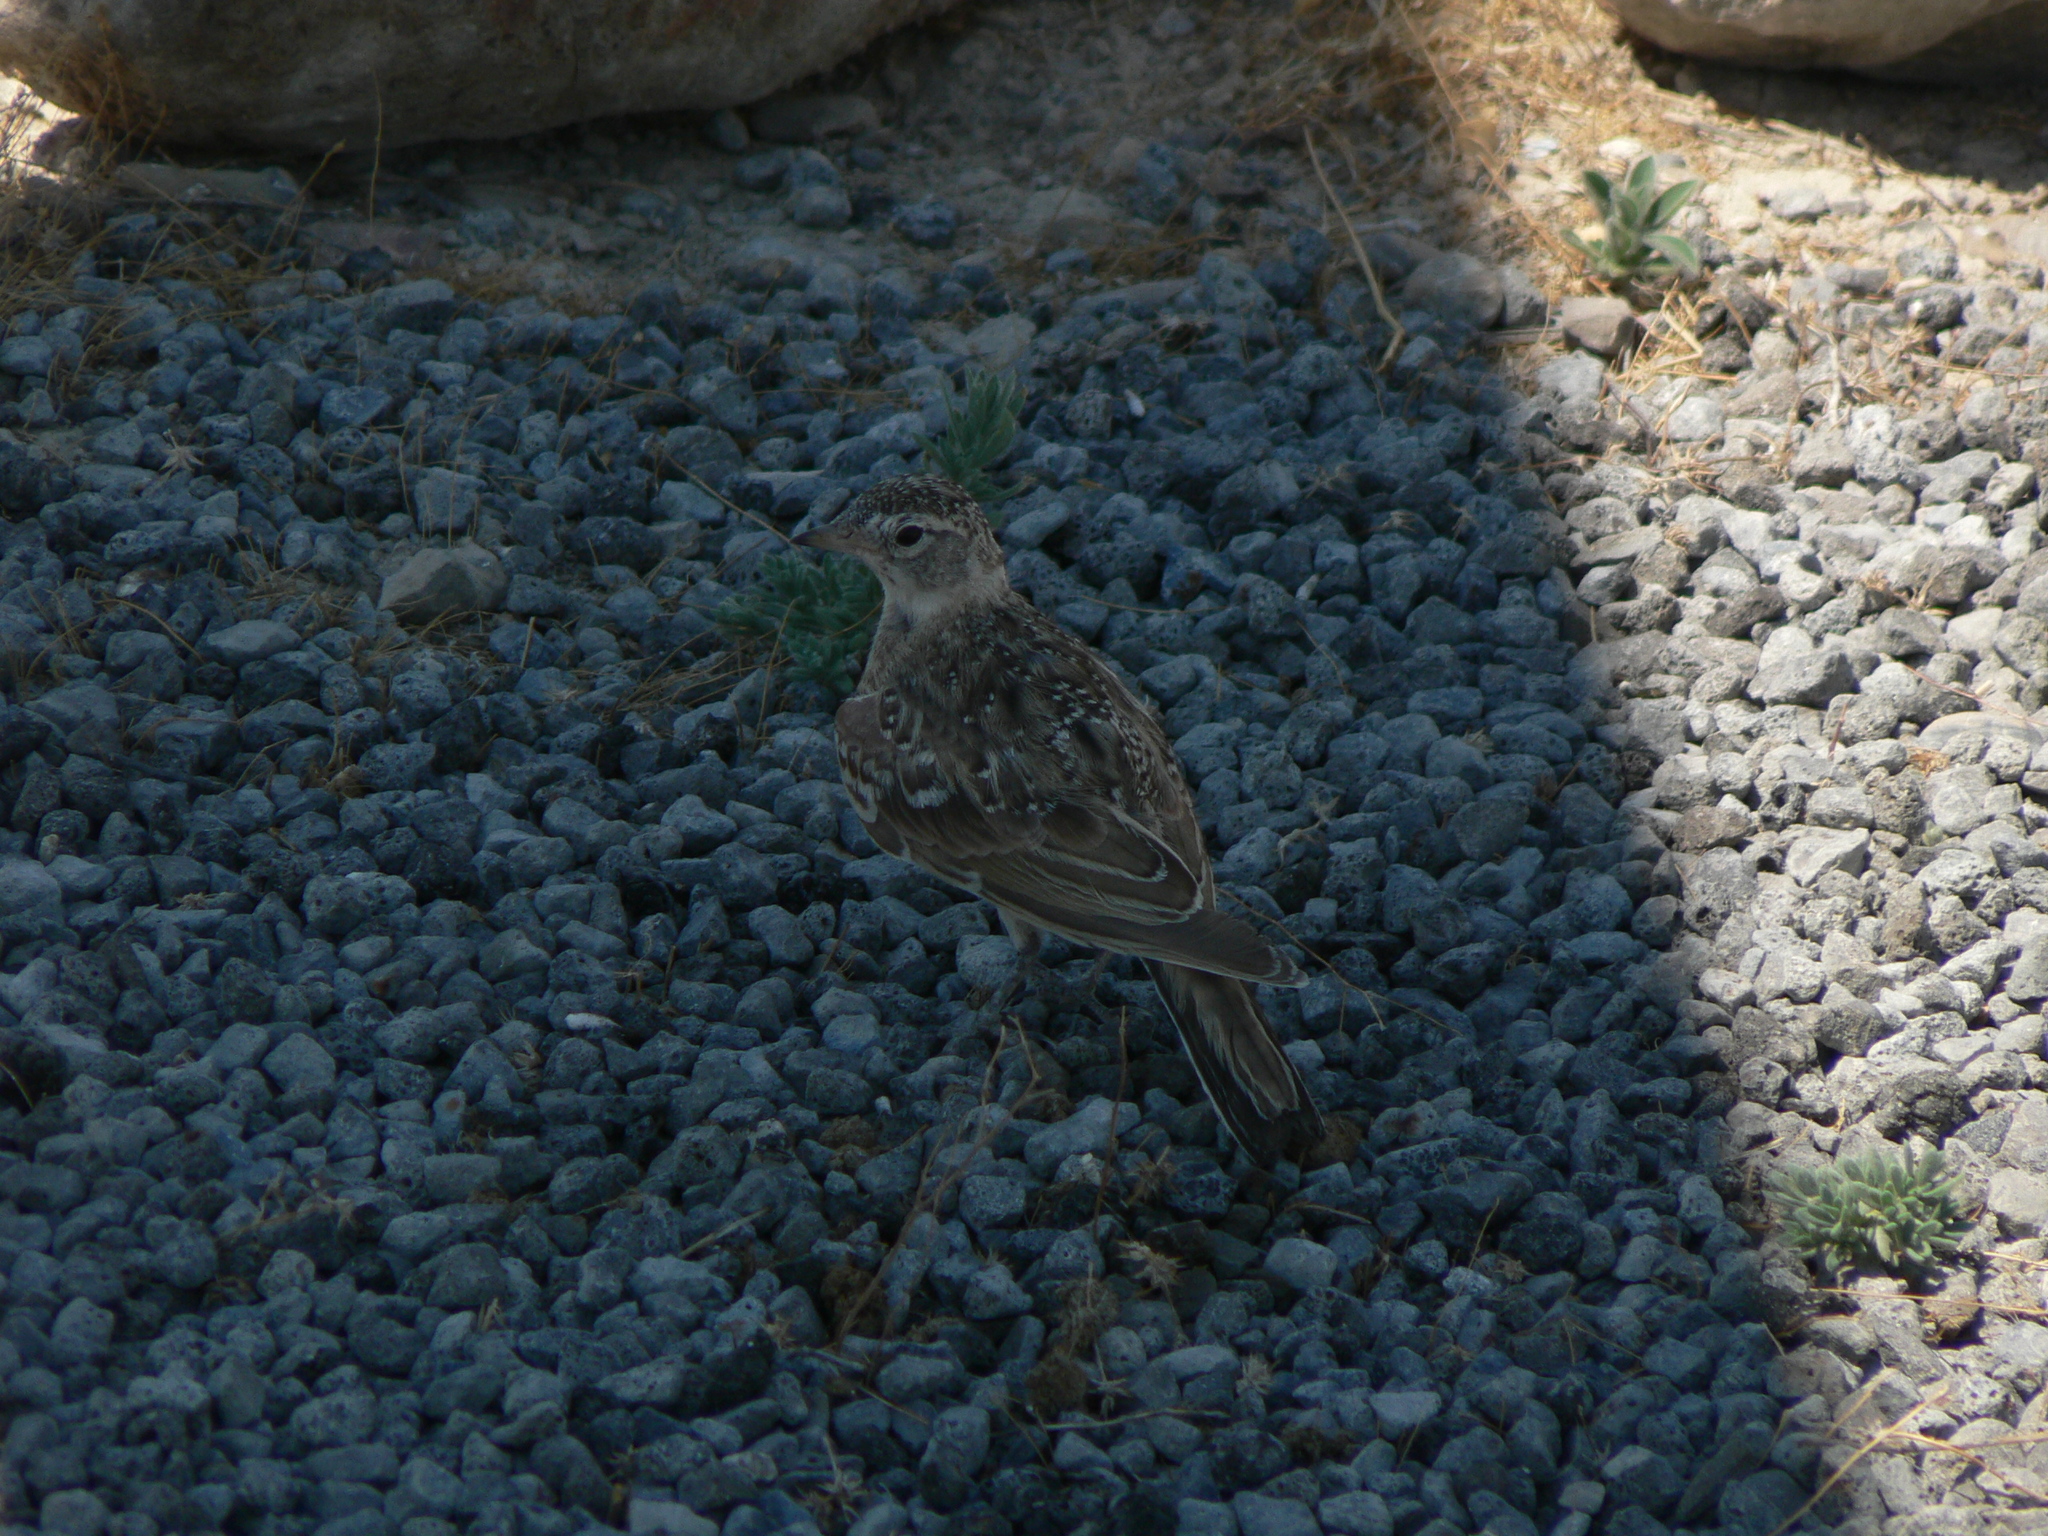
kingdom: Animalia
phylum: Chordata
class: Aves
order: Passeriformes
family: Alaudidae
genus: Eremophila
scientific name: Eremophila alpestris
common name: Horned lark
